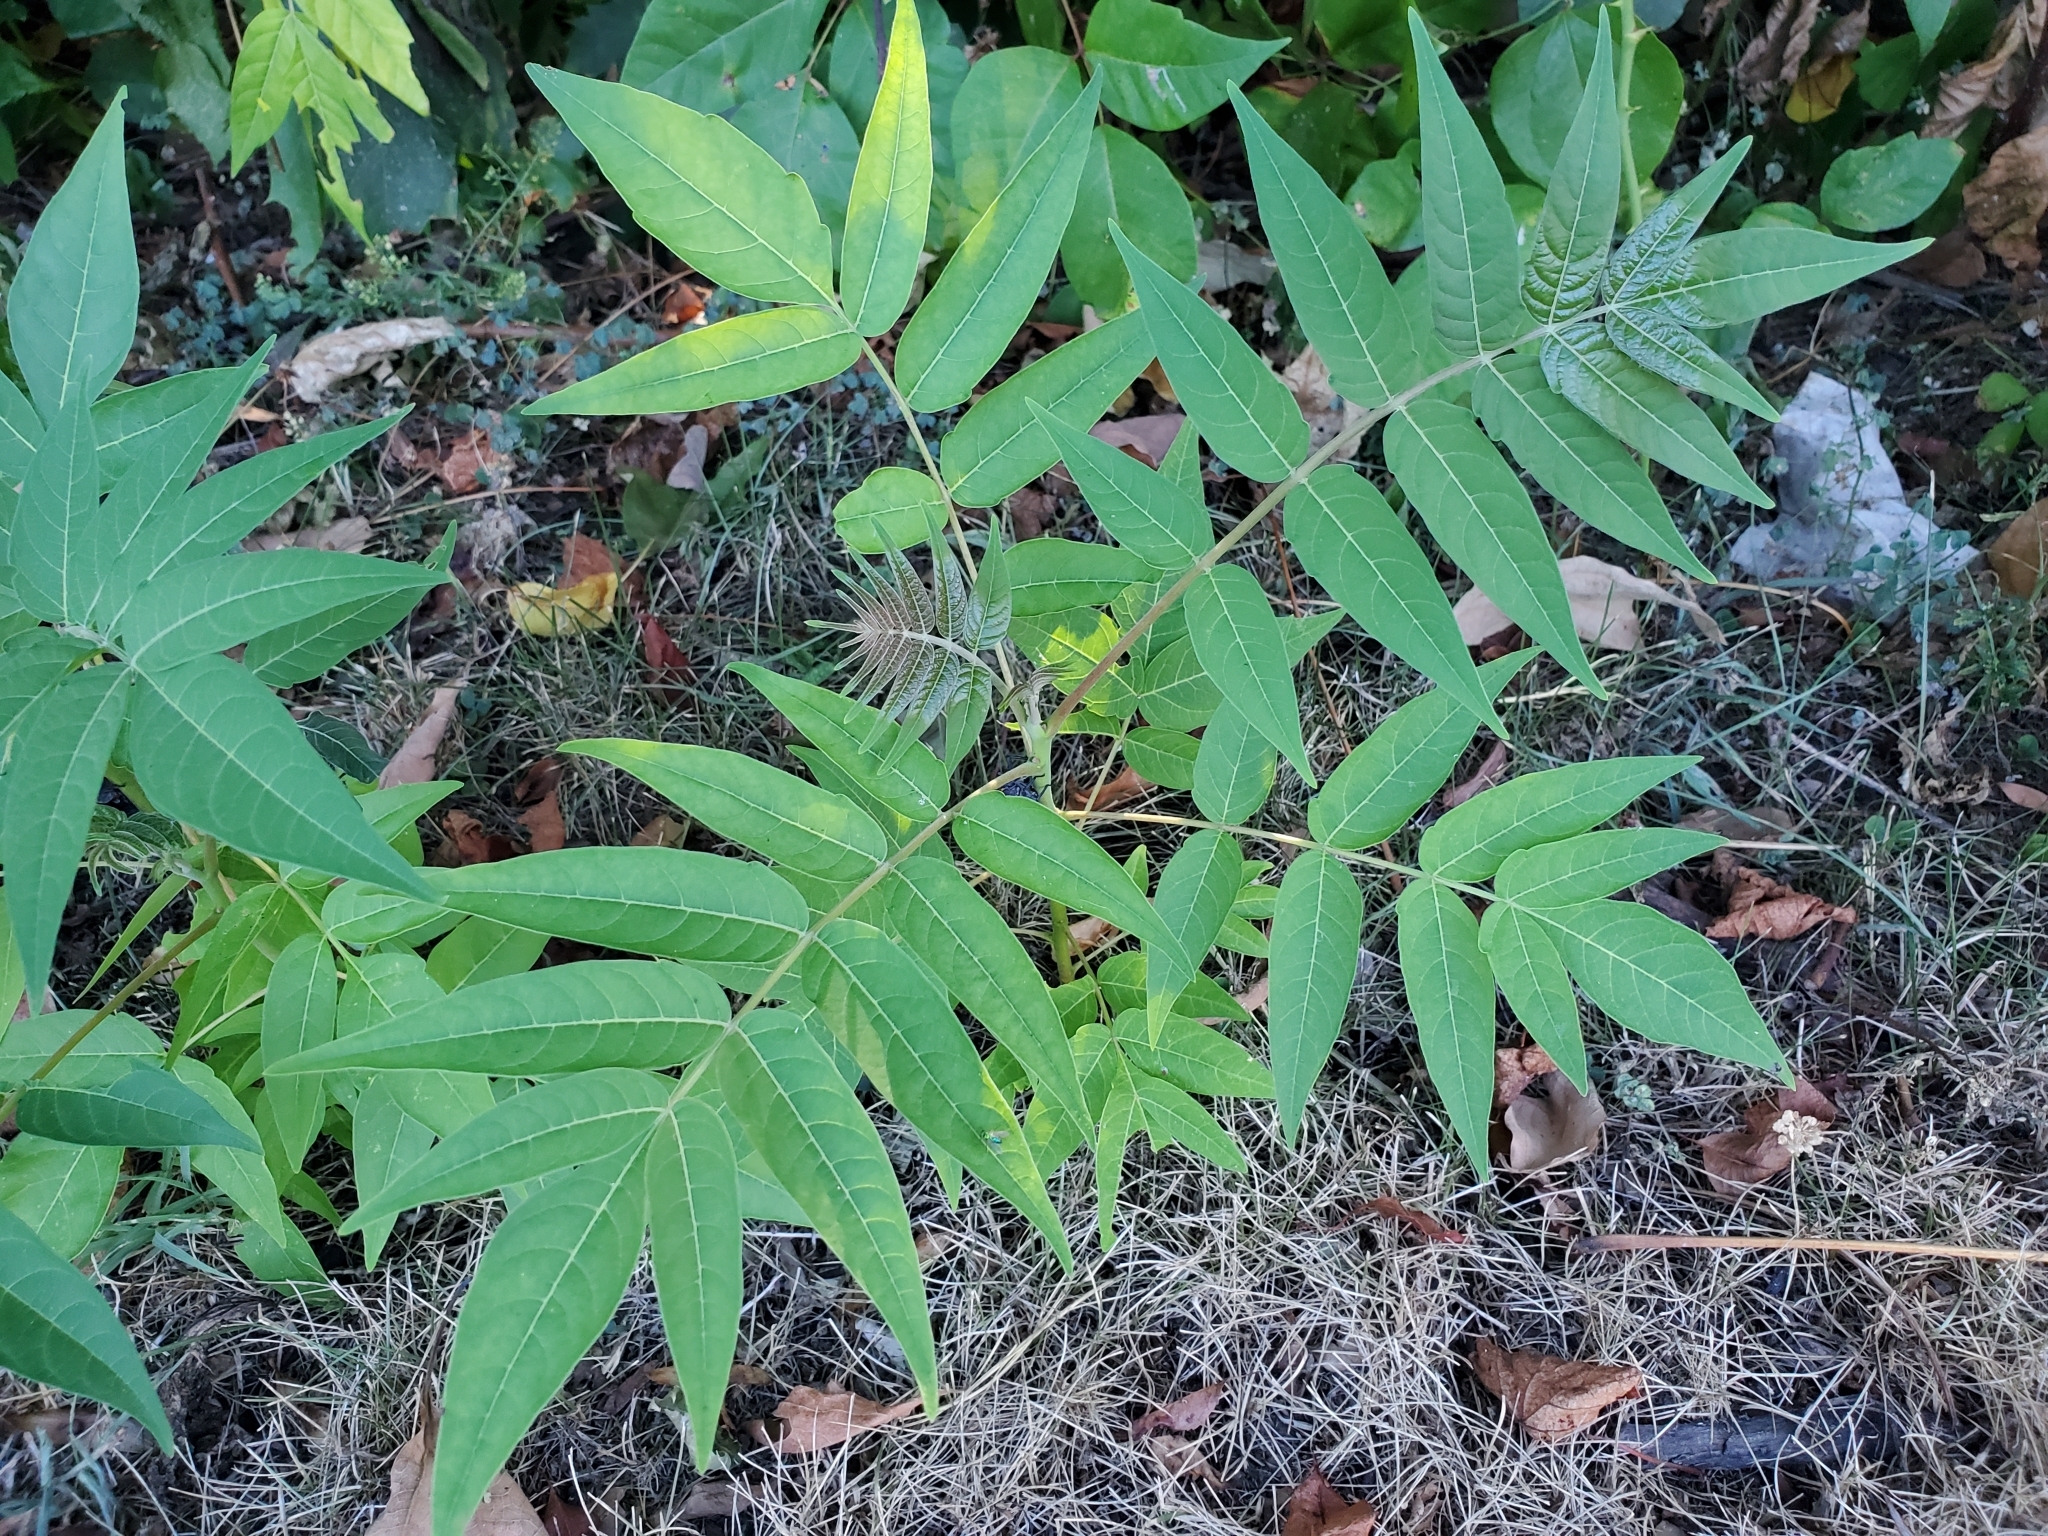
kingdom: Plantae
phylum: Tracheophyta
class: Magnoliopsida
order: Sapindales
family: Simaroubaceae
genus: Ailanthus
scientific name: Ailanthus altissima
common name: Tree-of-heaven
